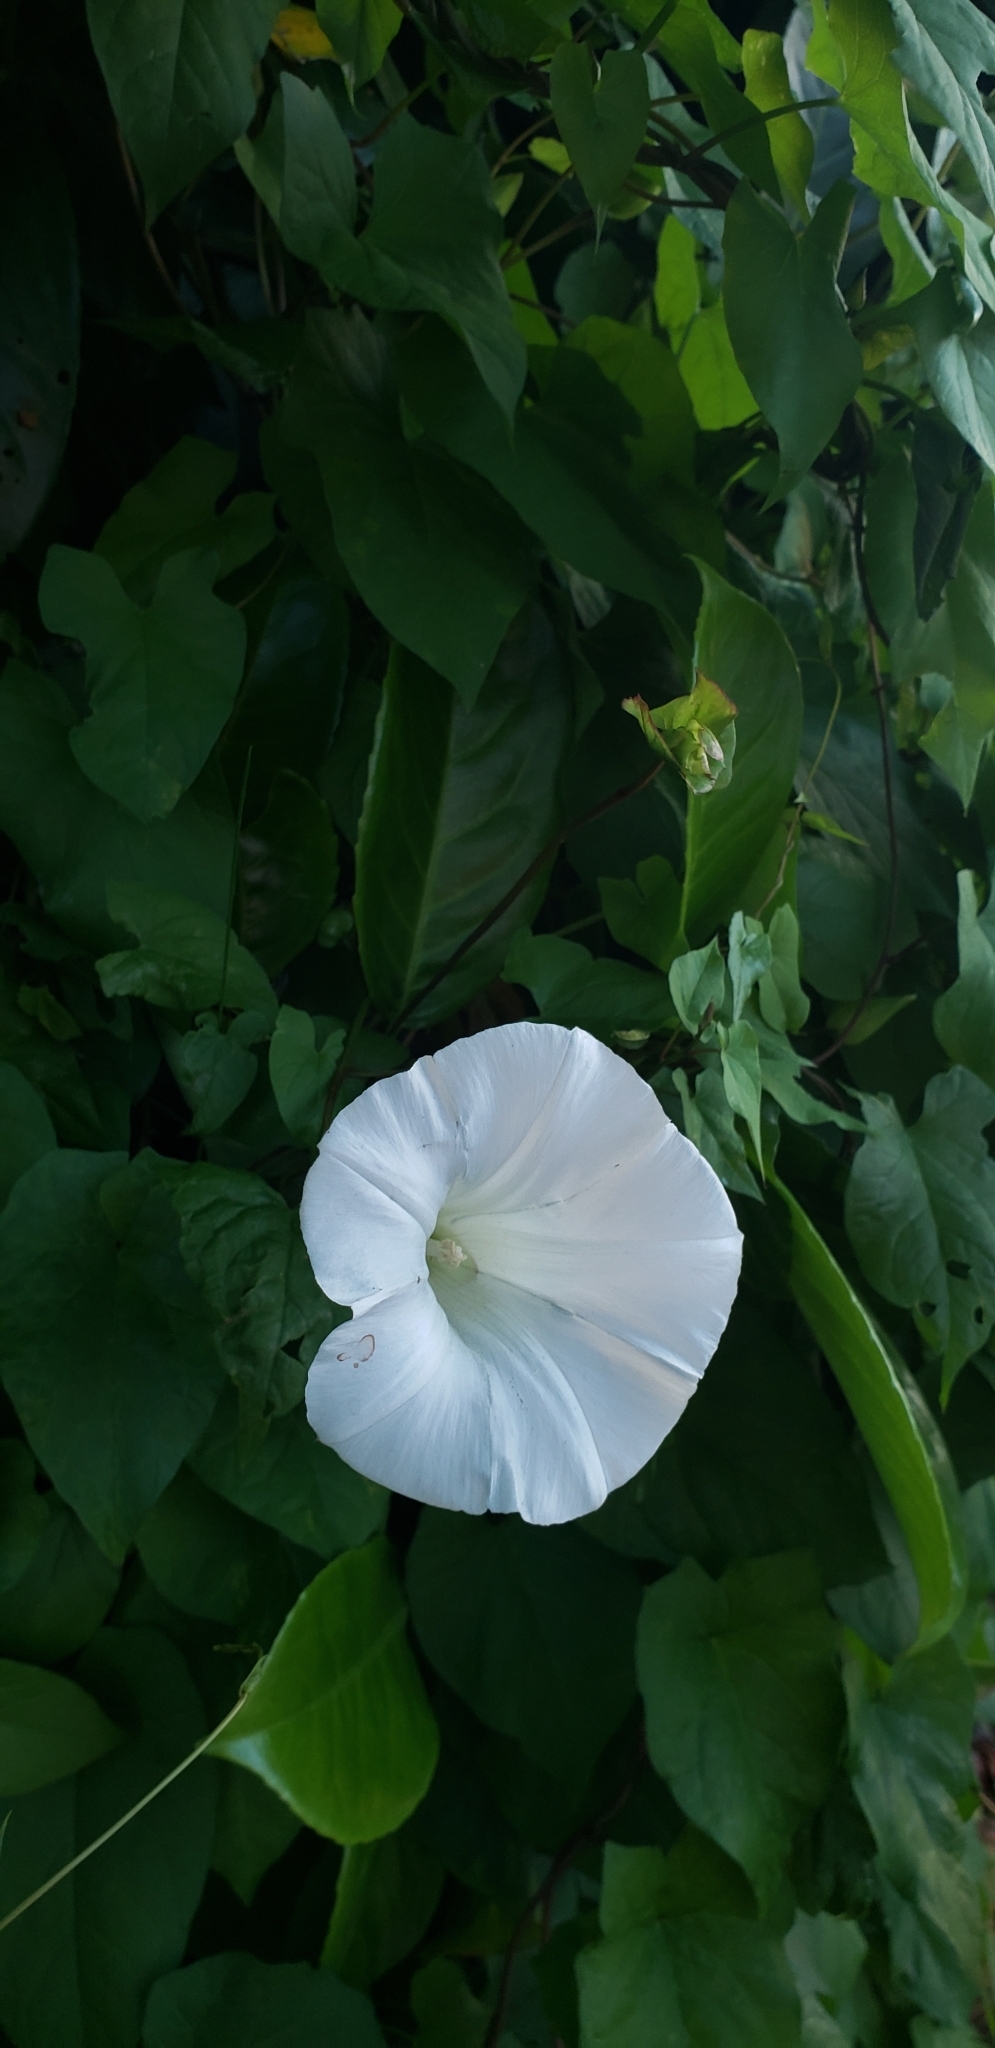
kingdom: Plantae
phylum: Tracheophyta
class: Magnoliopsida
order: Solanales
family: Convolvulaceae
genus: Calystegia
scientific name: Calystegia silvatica
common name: Large bindweed
